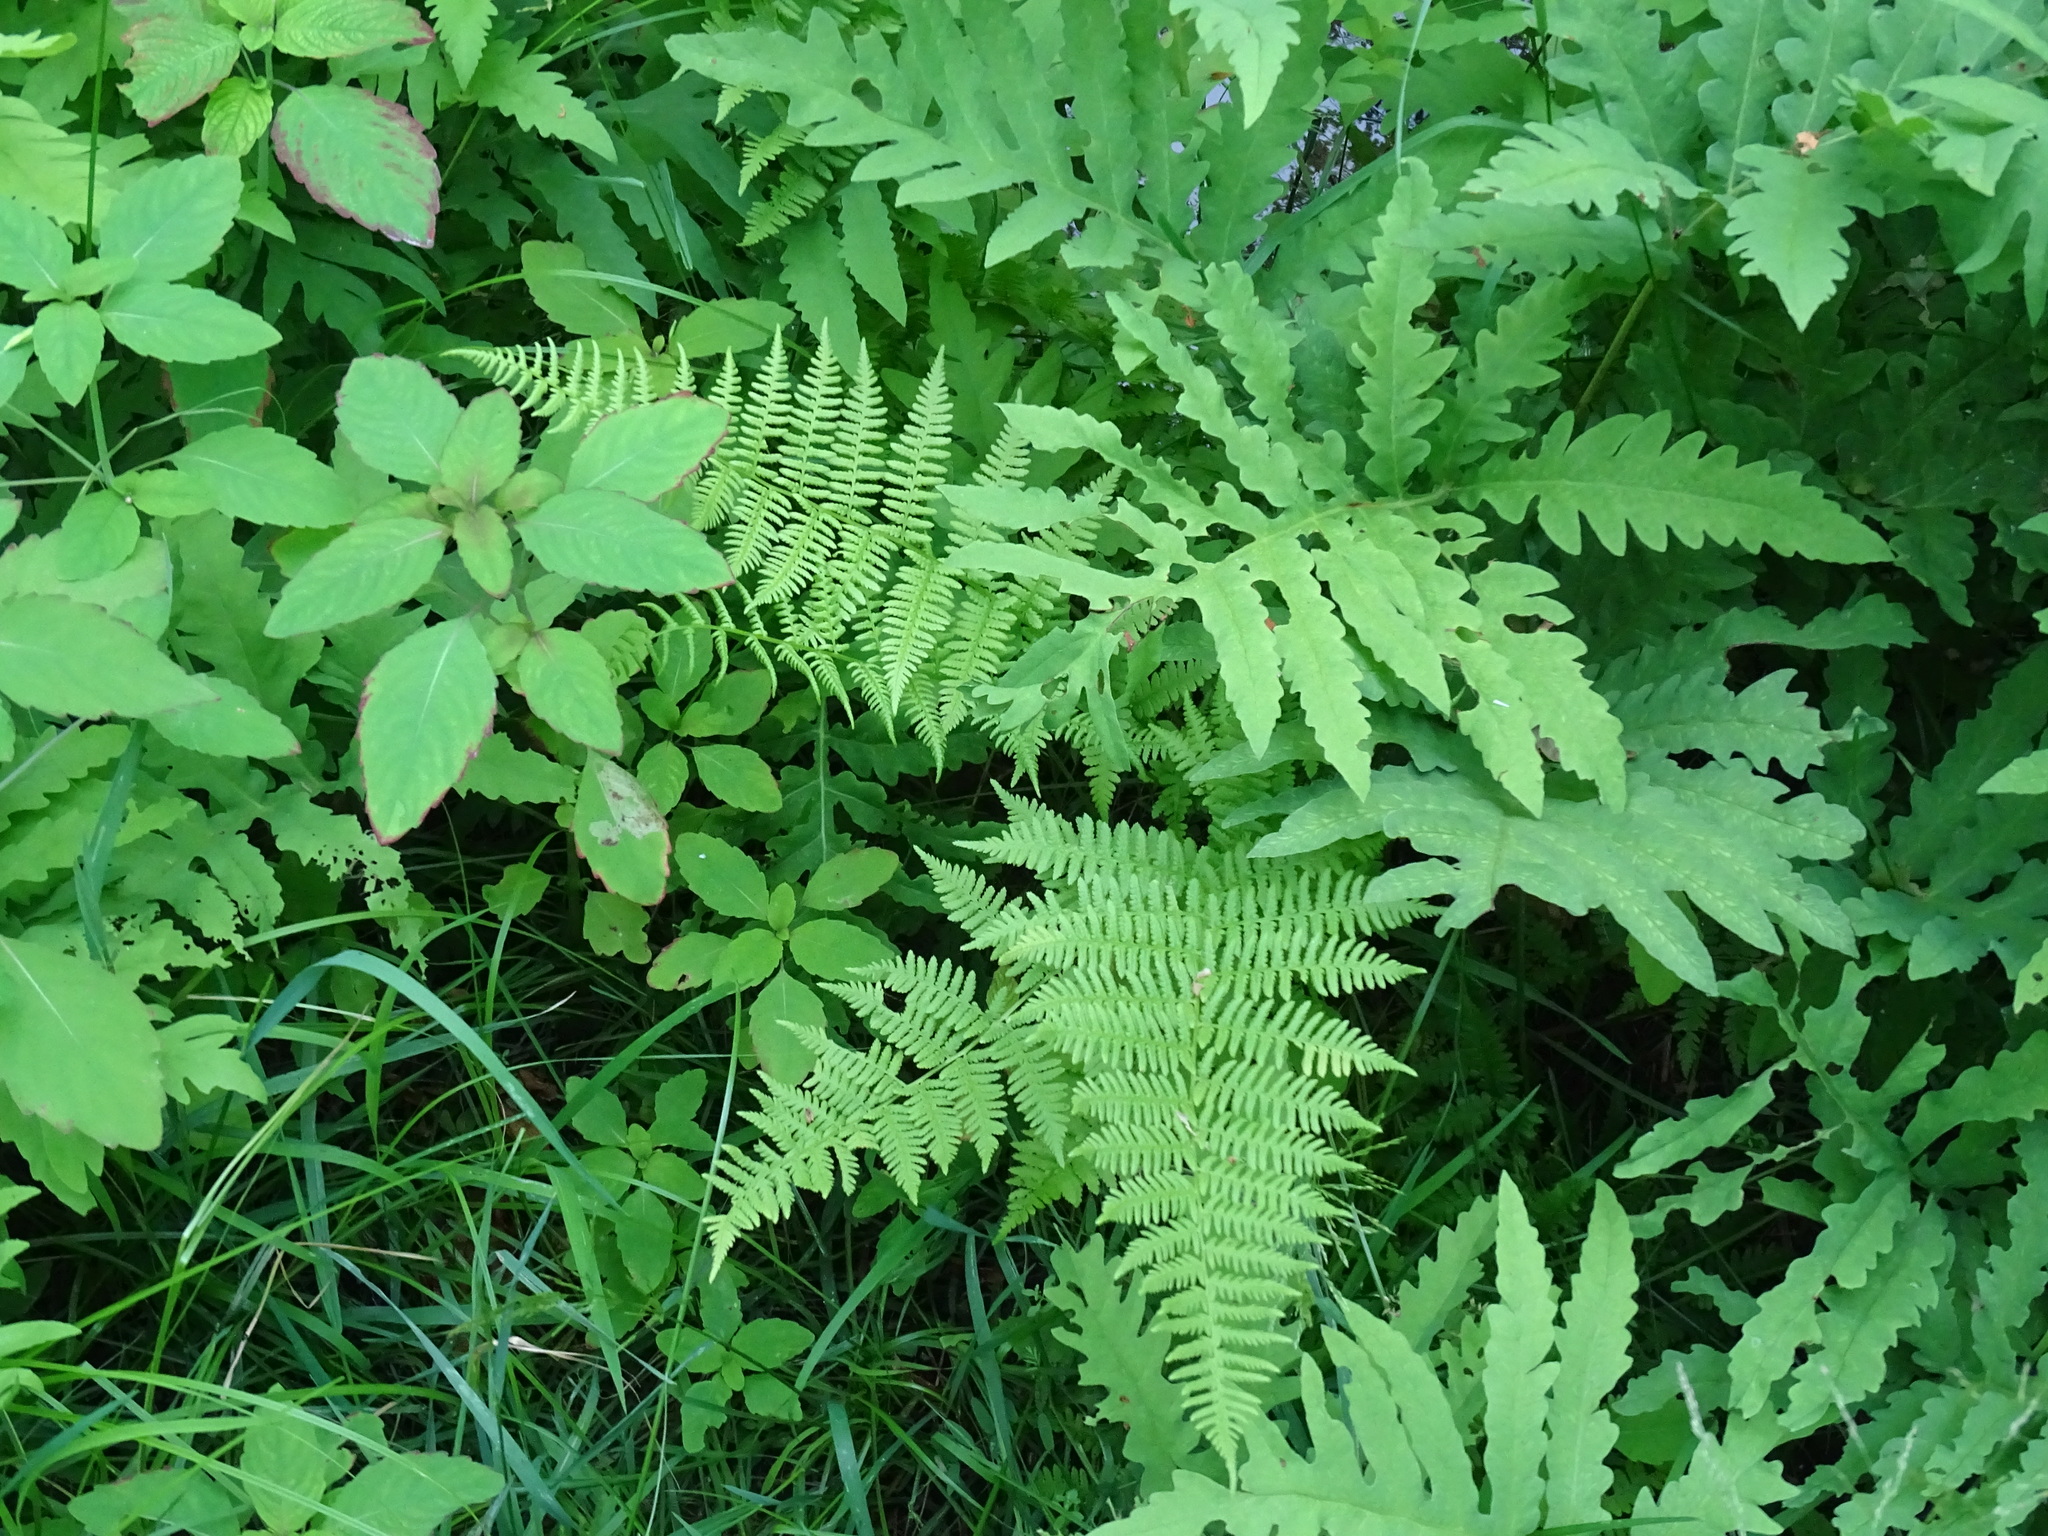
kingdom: Plantae
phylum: Tracheophyta
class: Polypodiopsida
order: Polypodiales
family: Athyriaceae
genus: Athyrium
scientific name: Athyrium angustum
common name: Northern lady fern
